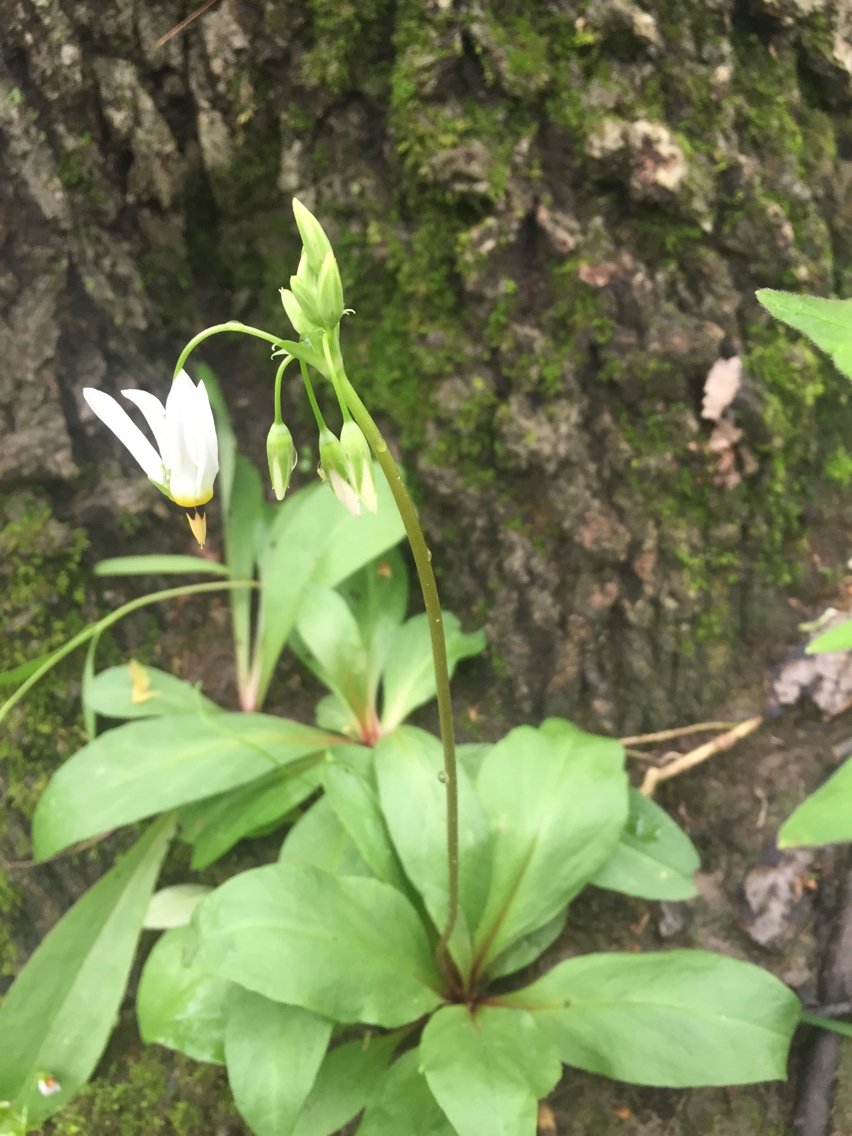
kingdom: Plantae
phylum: Tracheophyta
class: Magnoliopsida
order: Ericales
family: Primulaceae
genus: Dodecatheon
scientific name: Dodecatheon meadia
